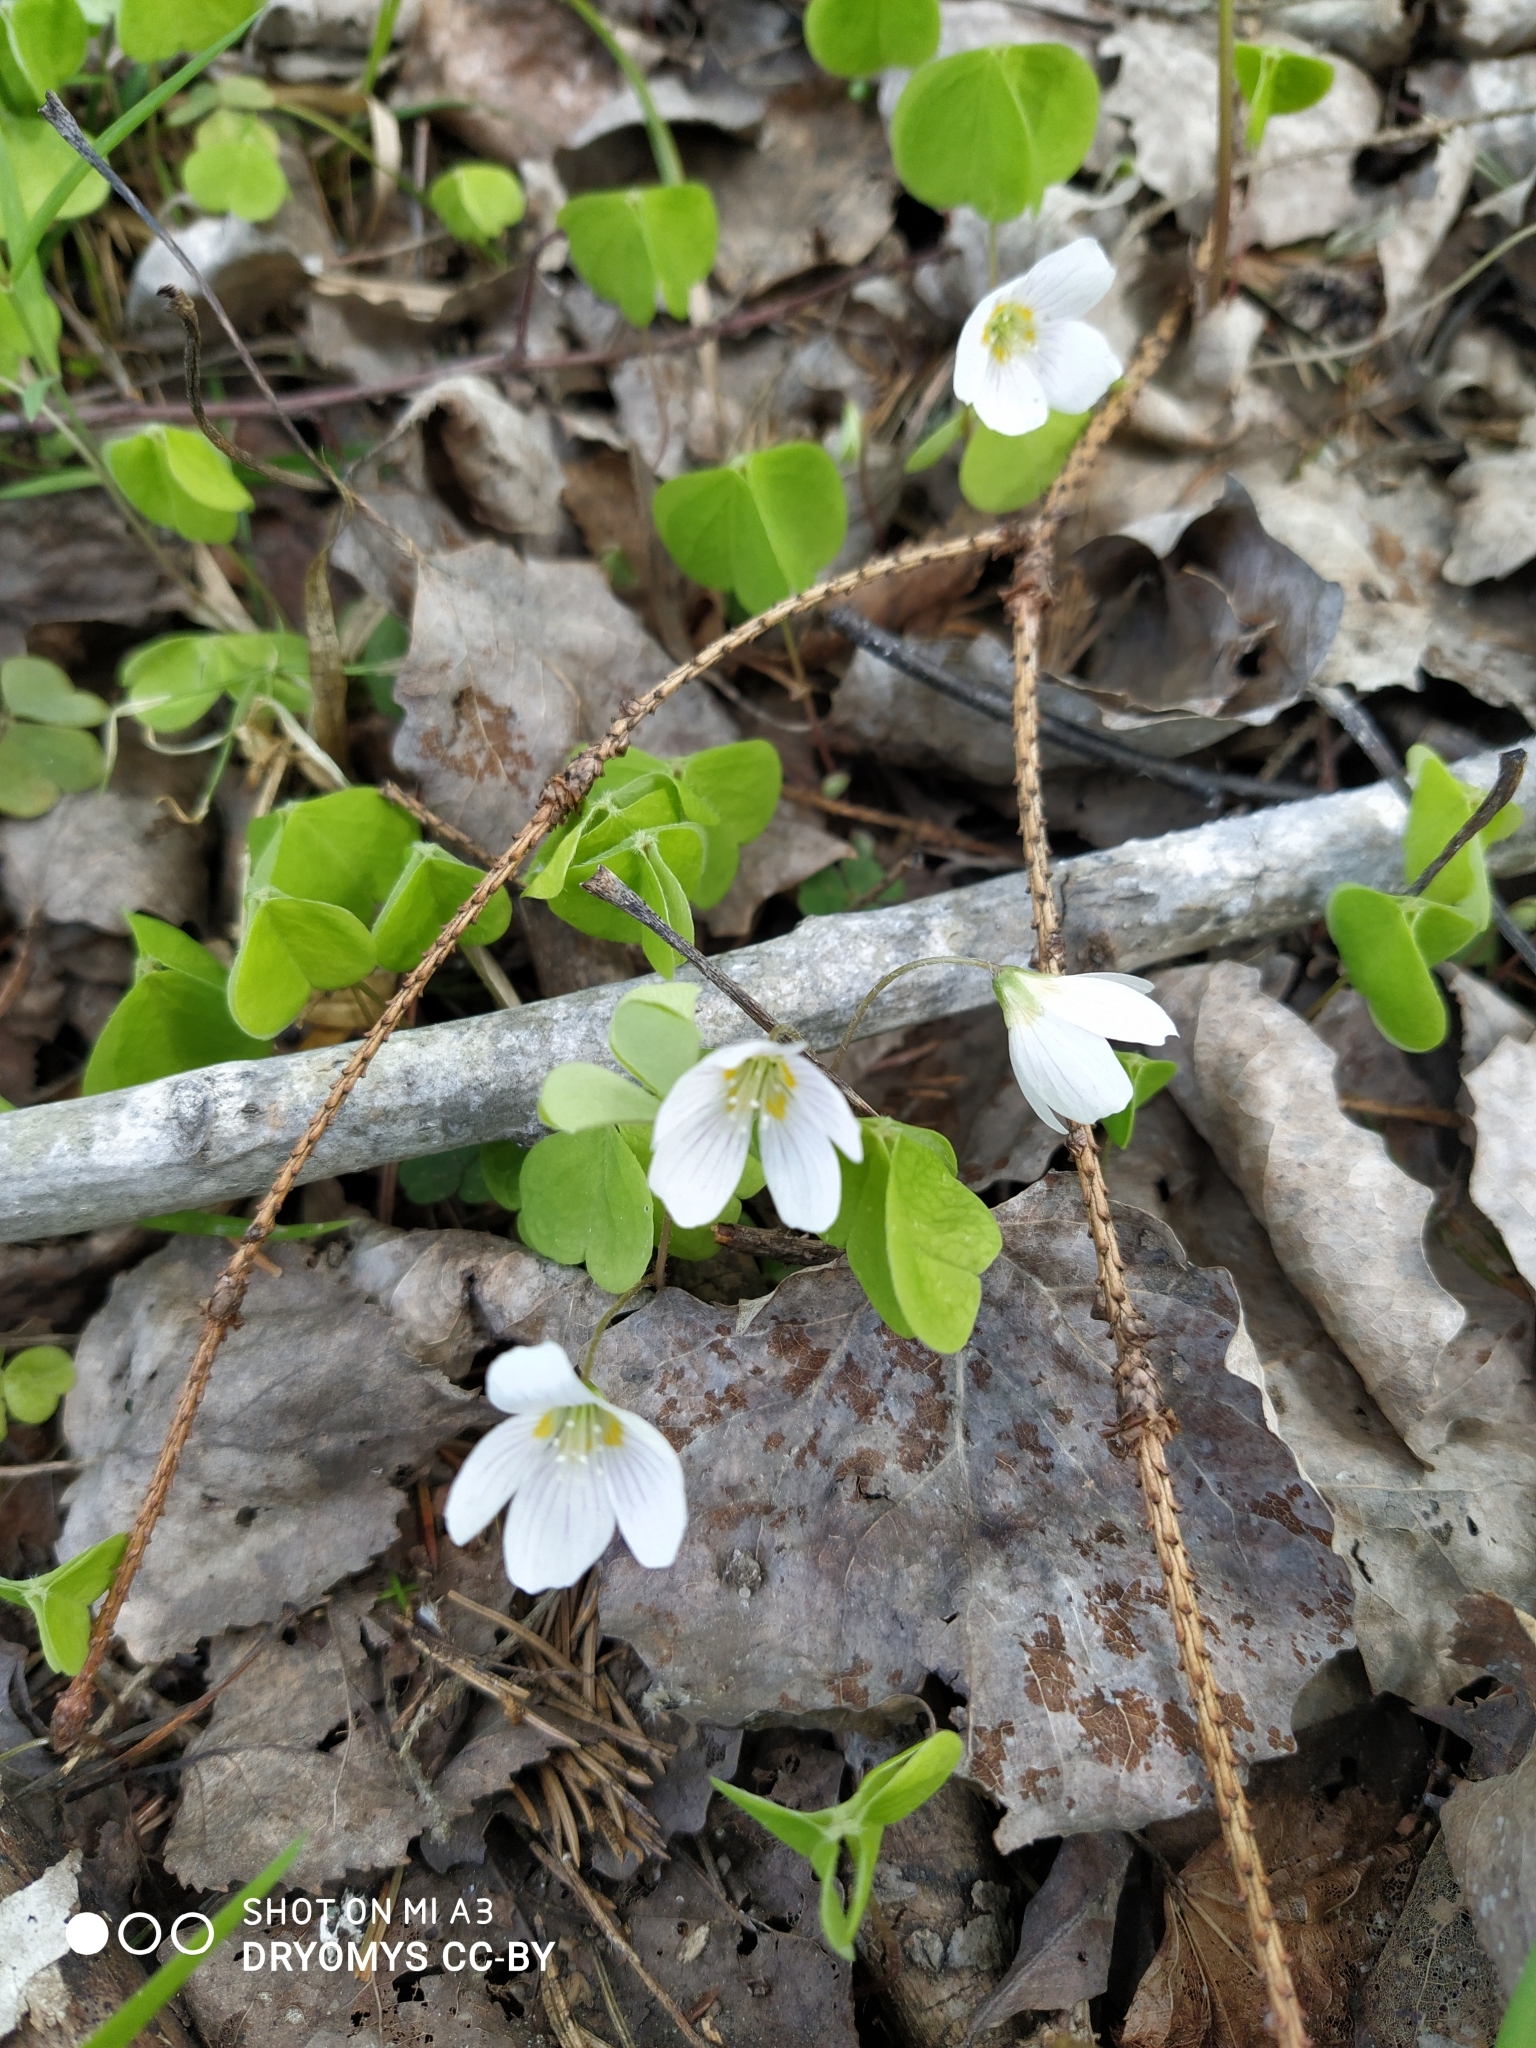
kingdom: Plantae
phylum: Tracheophyta
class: Magnoliopsida
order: Oxalidales
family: Oxalidaceae
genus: Oxalis
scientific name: Oxalis acetosella
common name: Wood-sorrel
